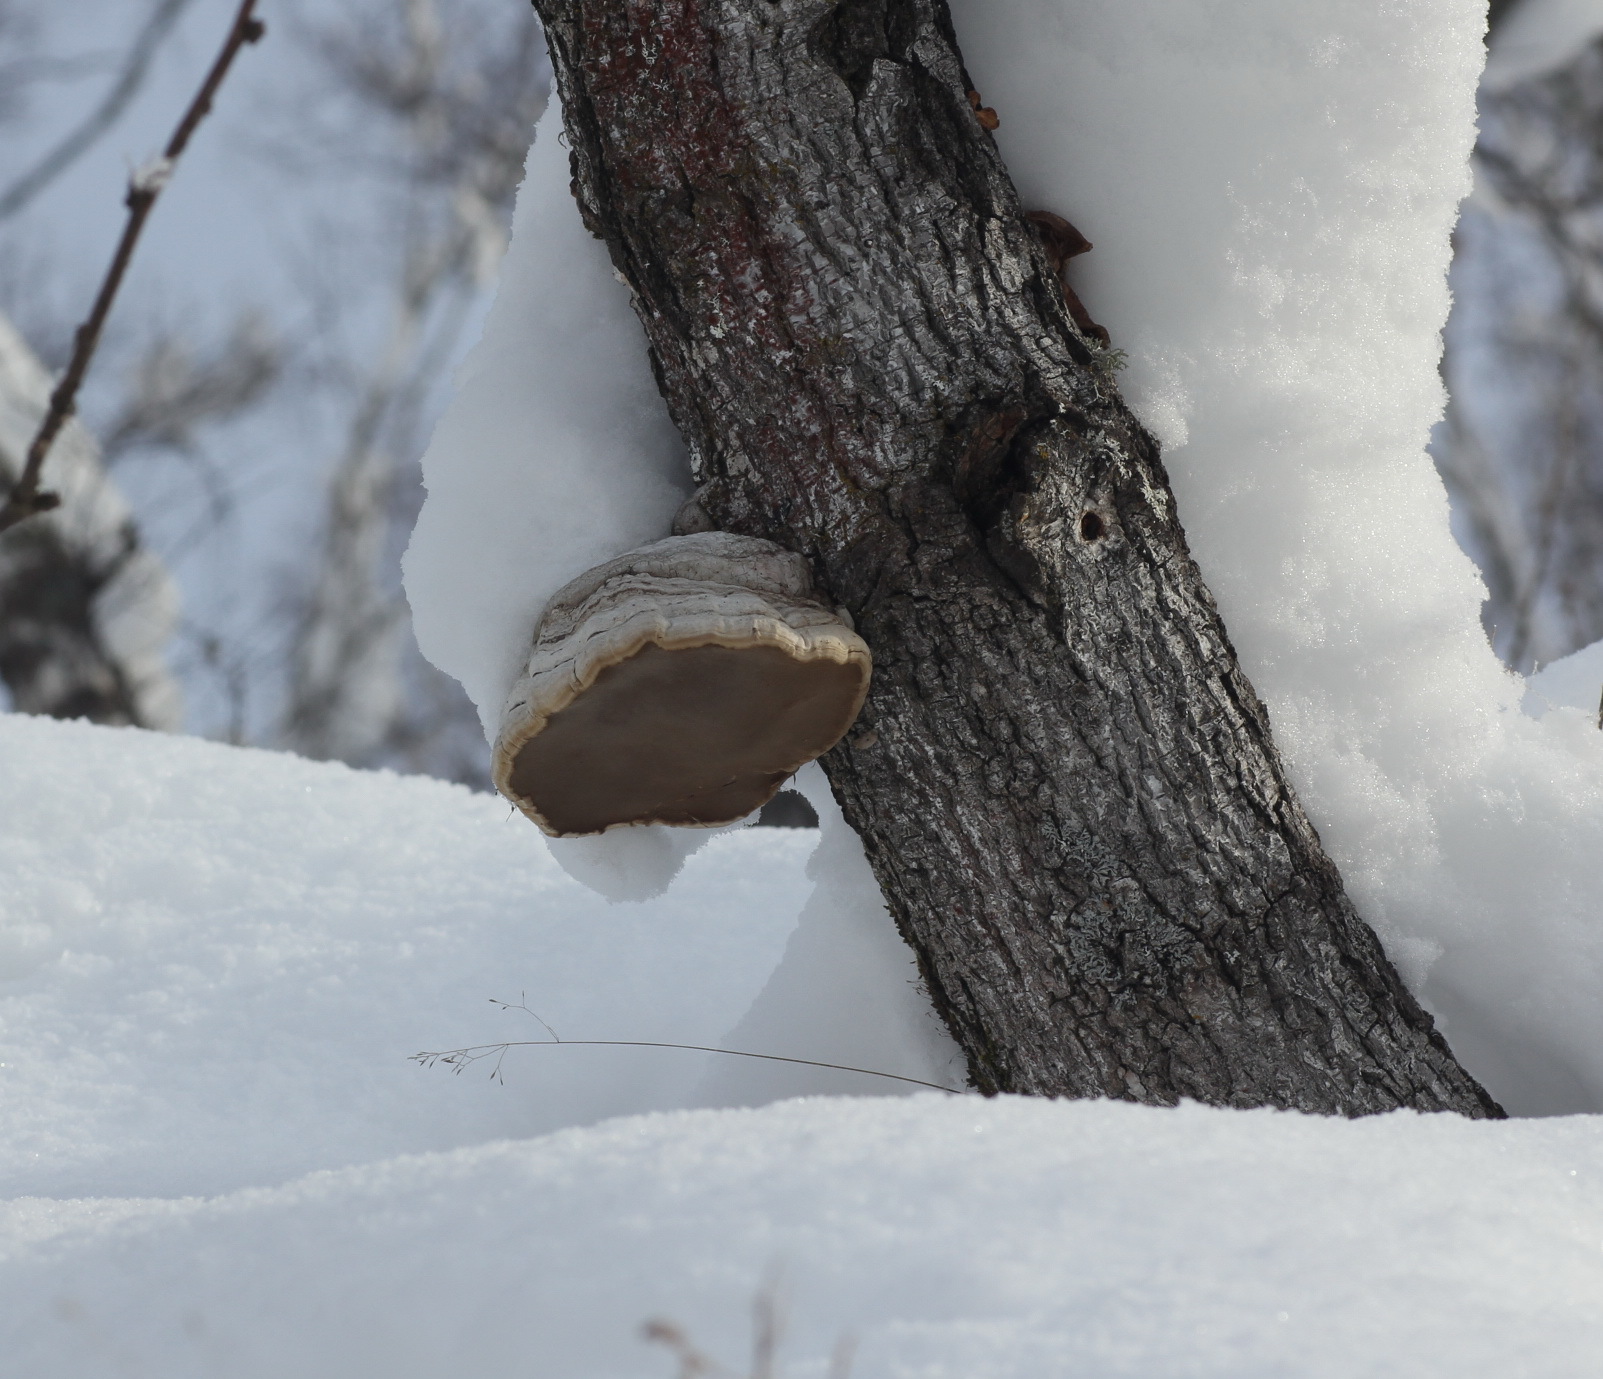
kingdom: Fungi
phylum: Basidiomycota
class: Agaricomycetes
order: Polyporales
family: Polyporaceae
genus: Fomes
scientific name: Fomes fomentarius
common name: Hoof fungus
